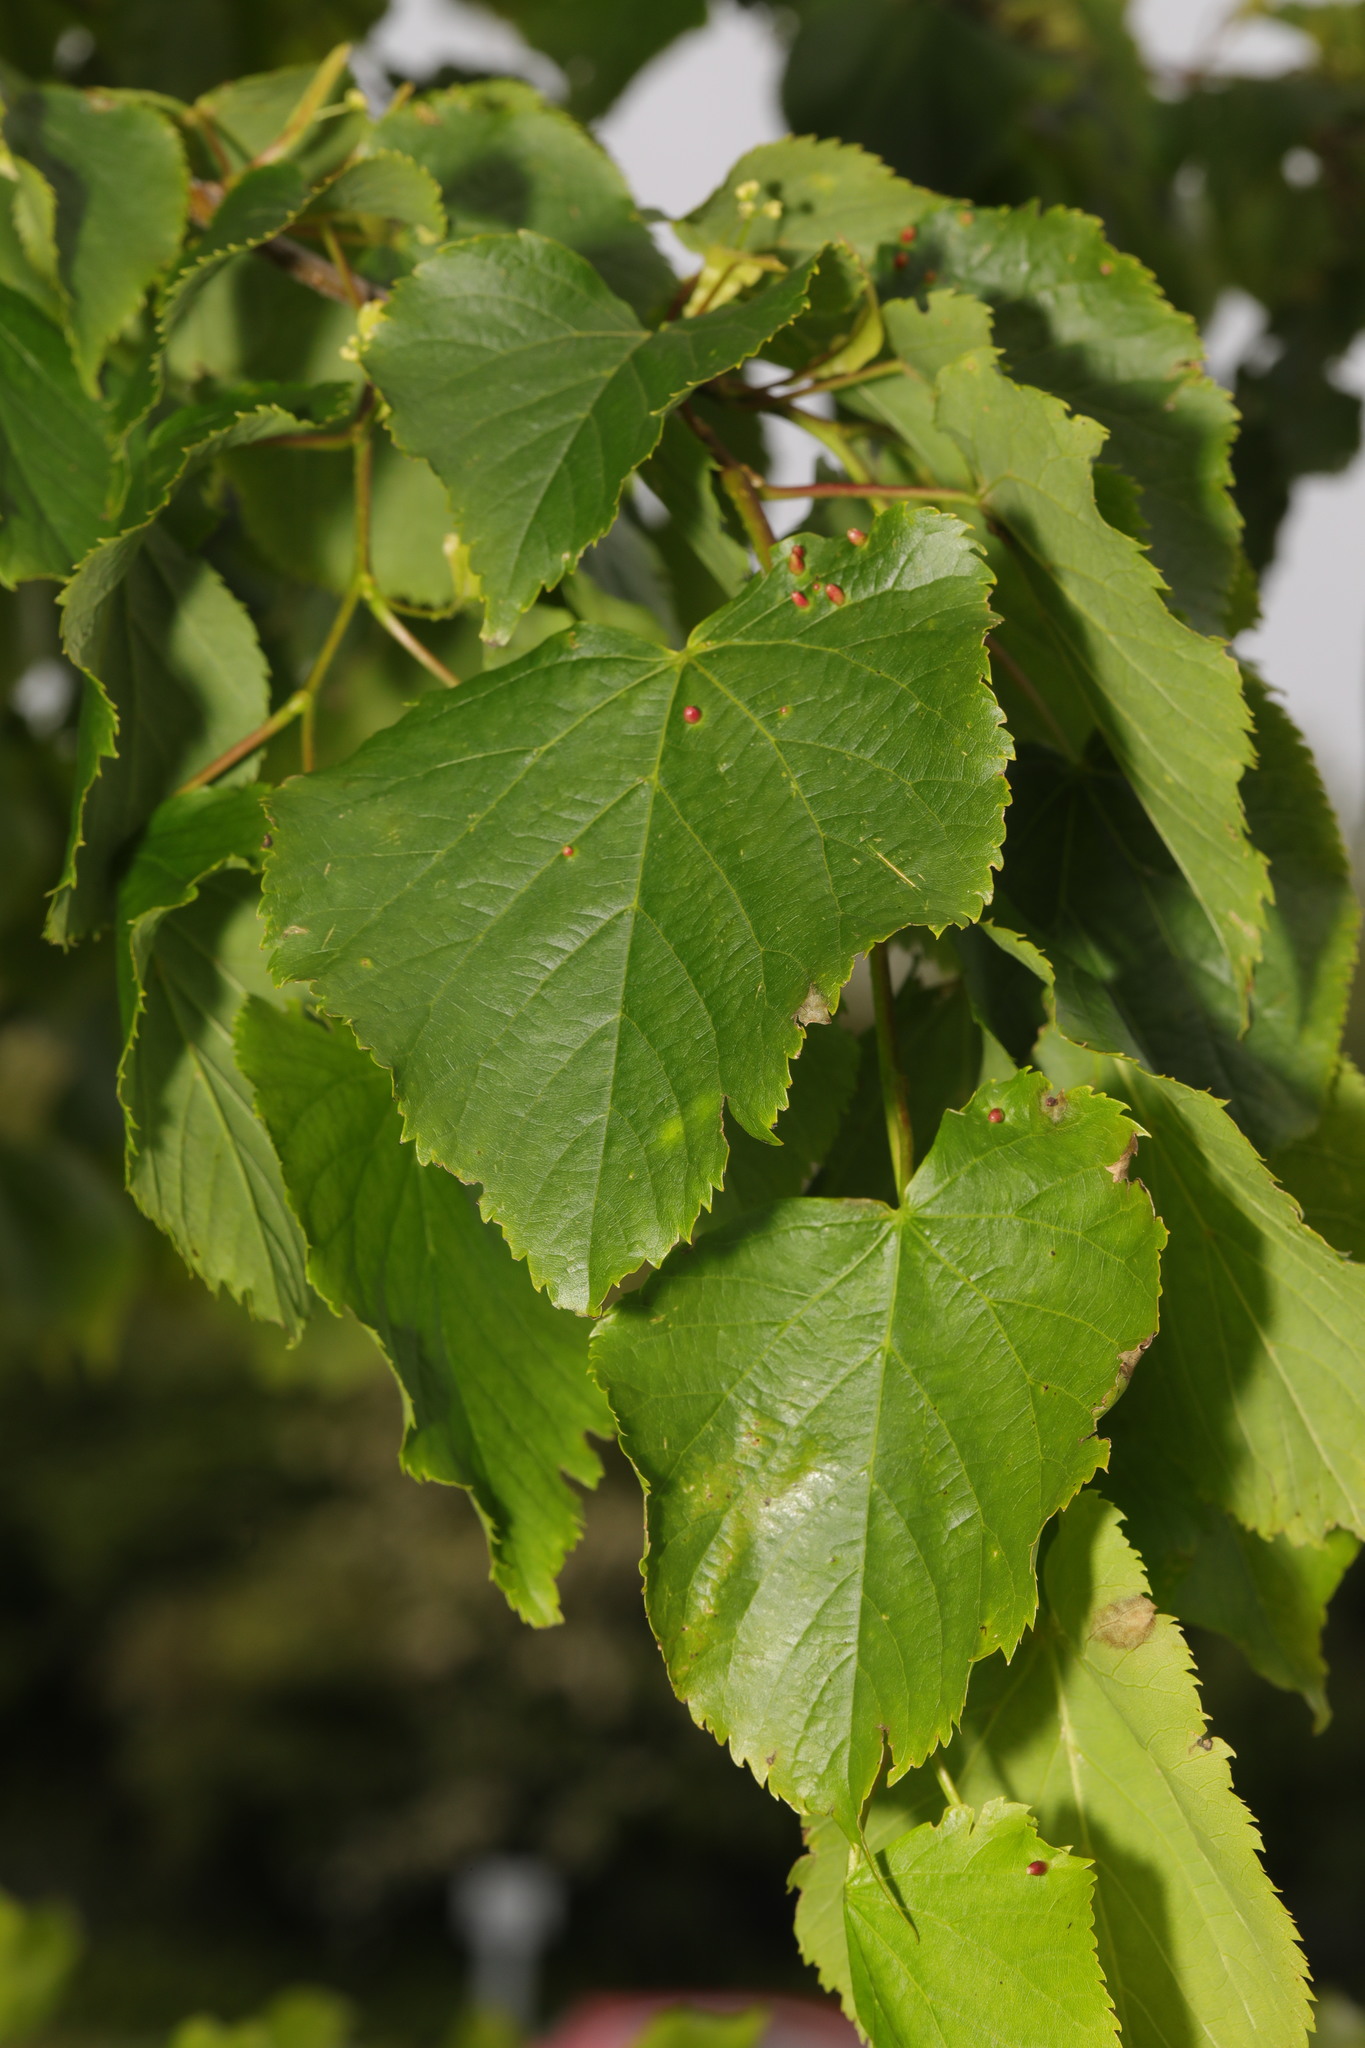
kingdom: Plantae
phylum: Tracheophyta
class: Magnoliopsida
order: Malvales
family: Malvaceae
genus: Tilia
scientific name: Tilia europaea
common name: European linden
